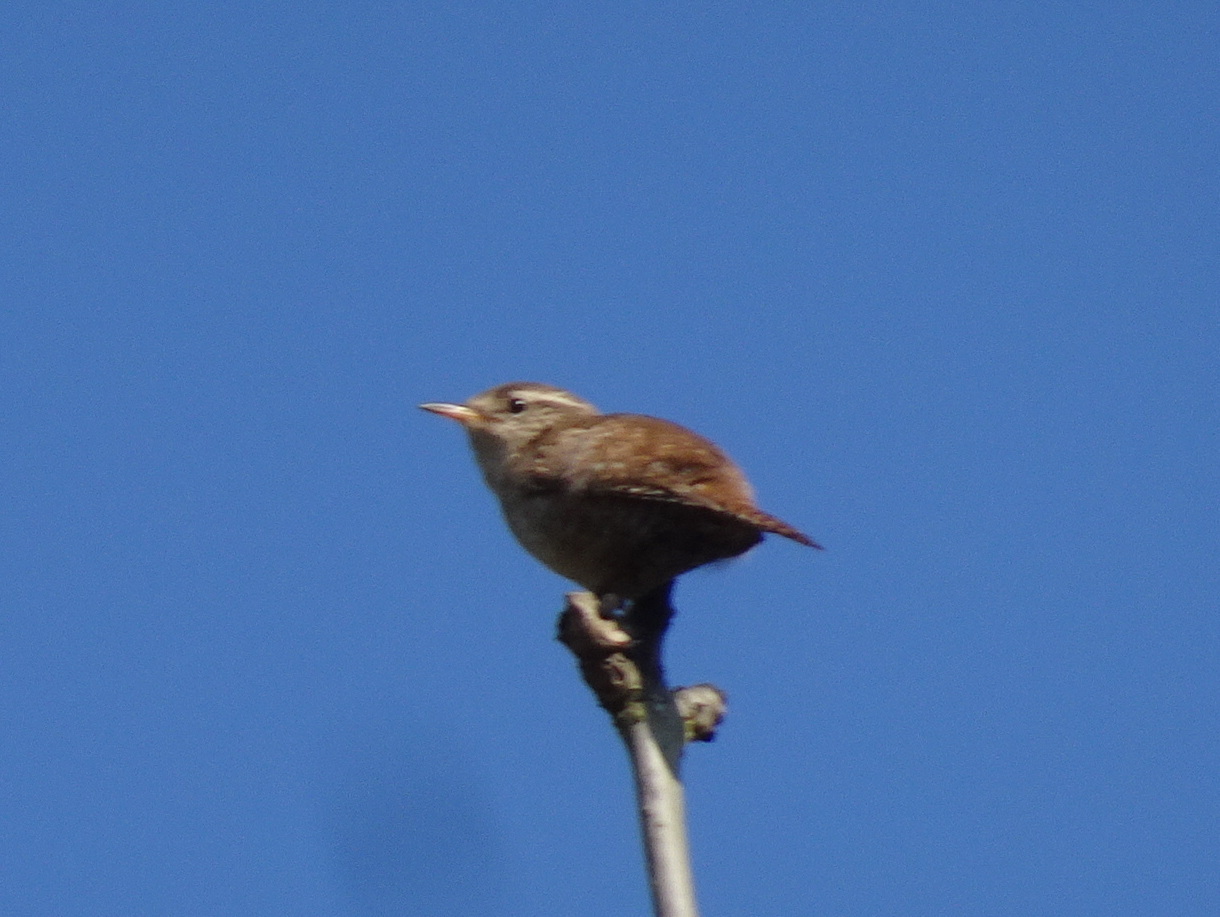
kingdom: Animalia
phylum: Chordata
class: Aves
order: Passeriformes
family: Troglodytidae
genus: Troglodytes
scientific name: Troglodytes troglodytes
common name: Eurasian wren
